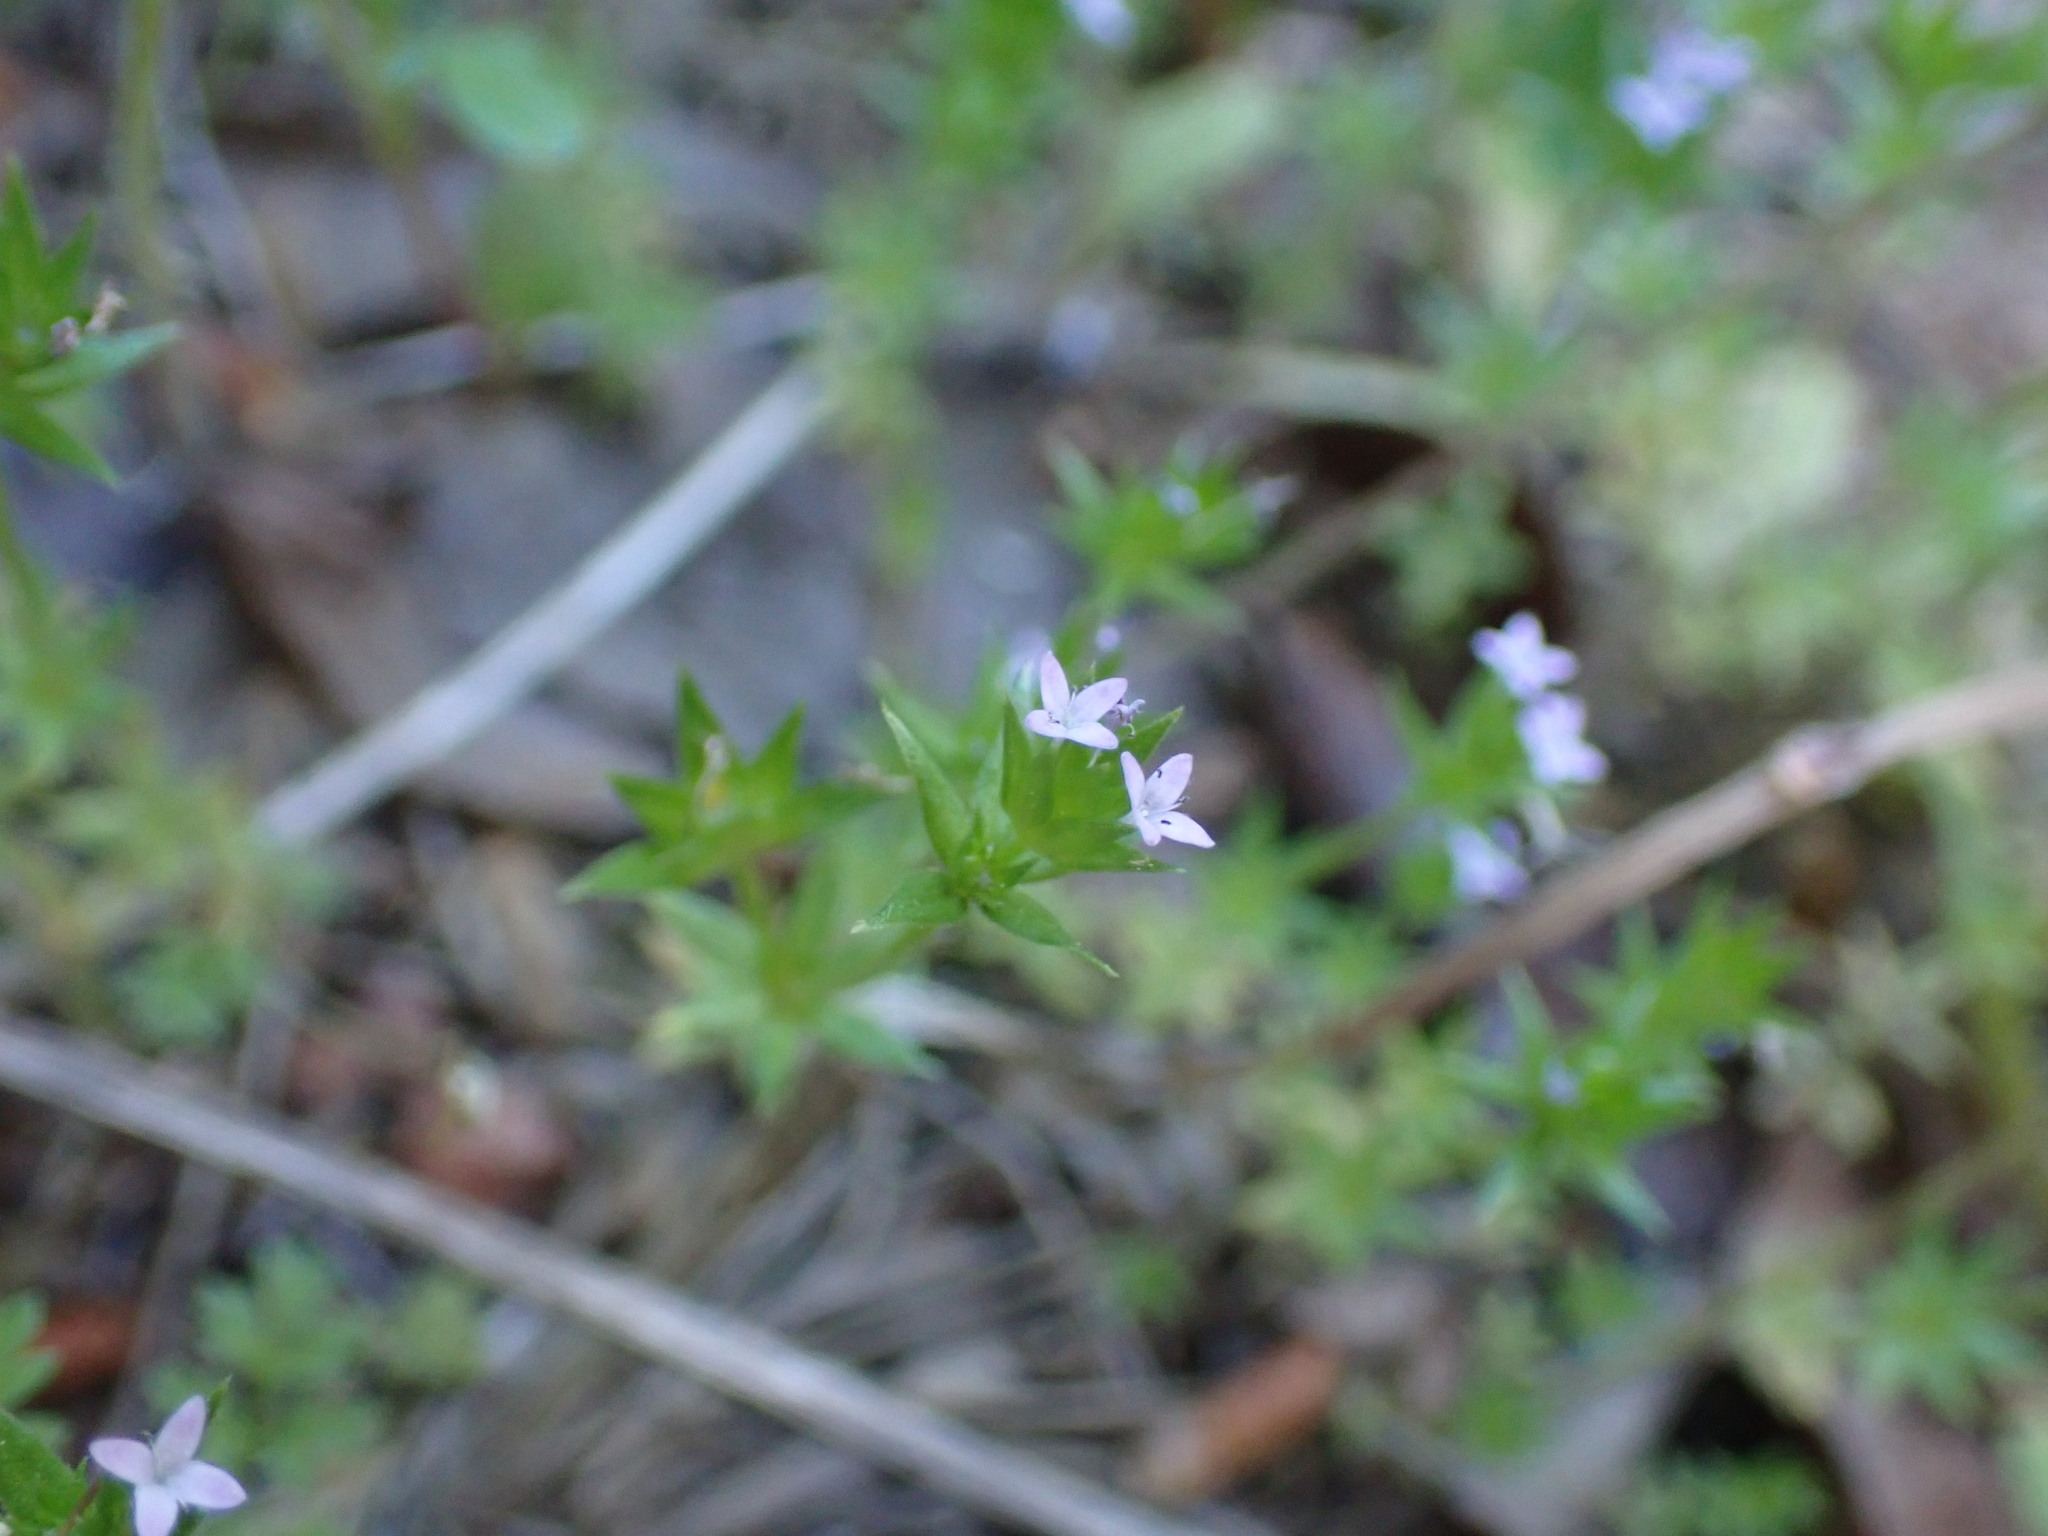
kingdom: Plantae
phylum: Tracheophyta
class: Magnoliopsida
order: Gentianales
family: Rubiaceae
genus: Sherardia
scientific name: Sherardia arvensis
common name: Field madder
